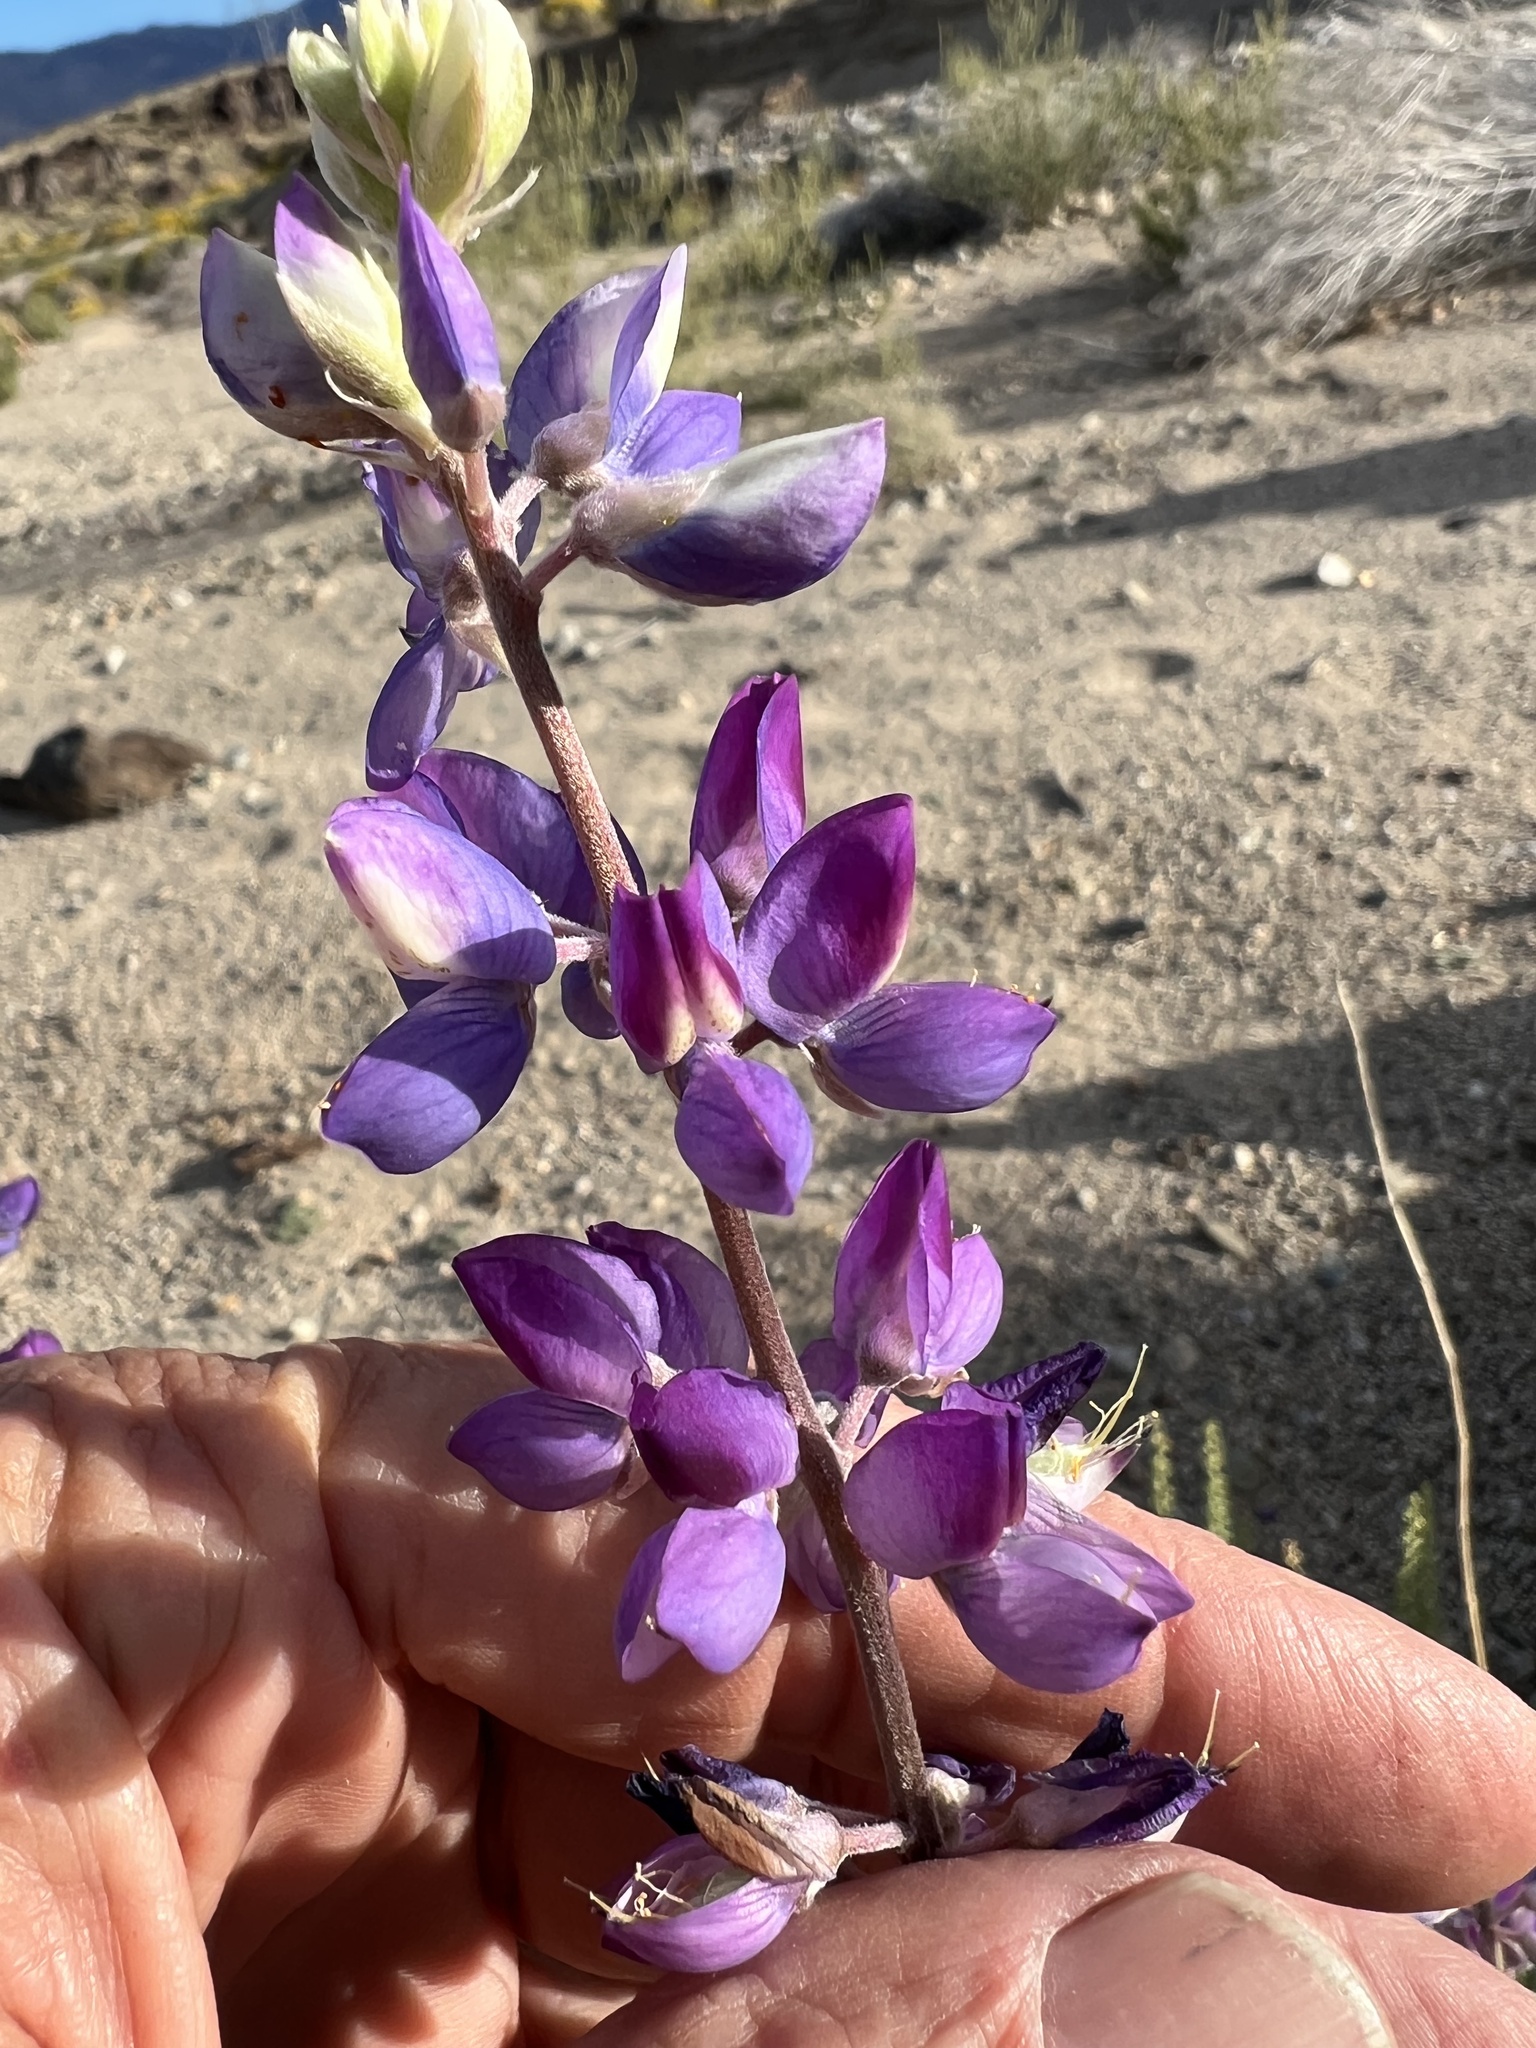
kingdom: Plantae
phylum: Tracheophyta
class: Magnoliopsida
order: Fabales
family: Fabaceae
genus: Lupinus
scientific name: Lupinus excubitus
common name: Grape soda lupine
